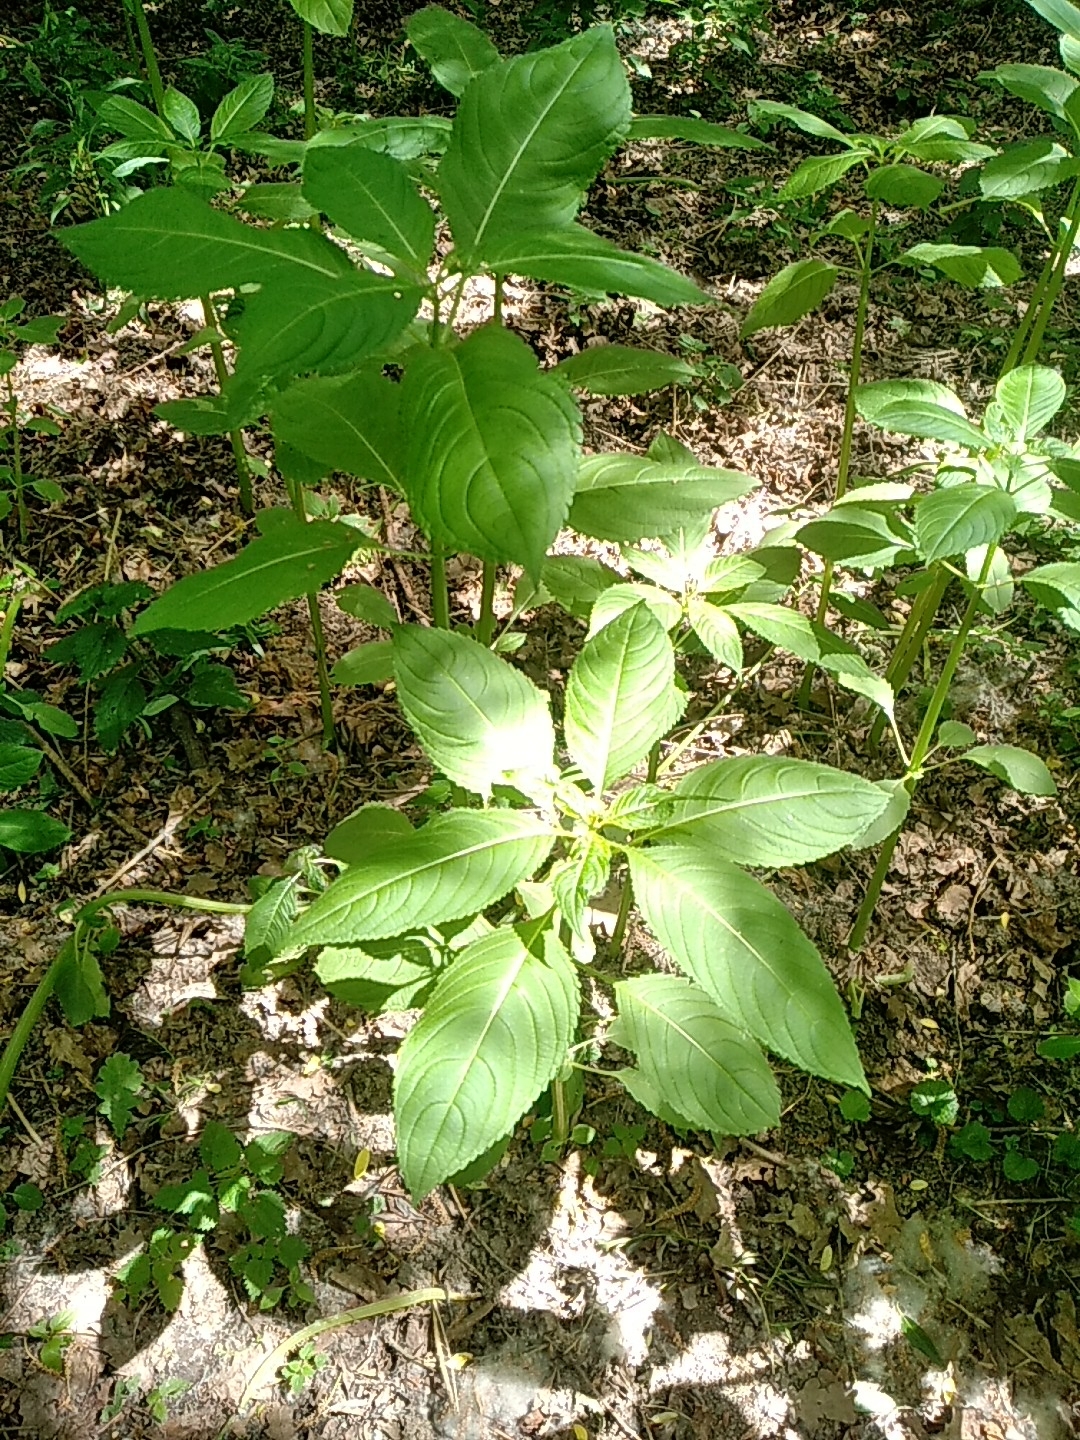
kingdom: Plantae
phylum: Tracheophyta
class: Magnoliopsida
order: Ericales
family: Balsaminaceae
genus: Impatiens
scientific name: Impatiens parviflora
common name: Small balsam
